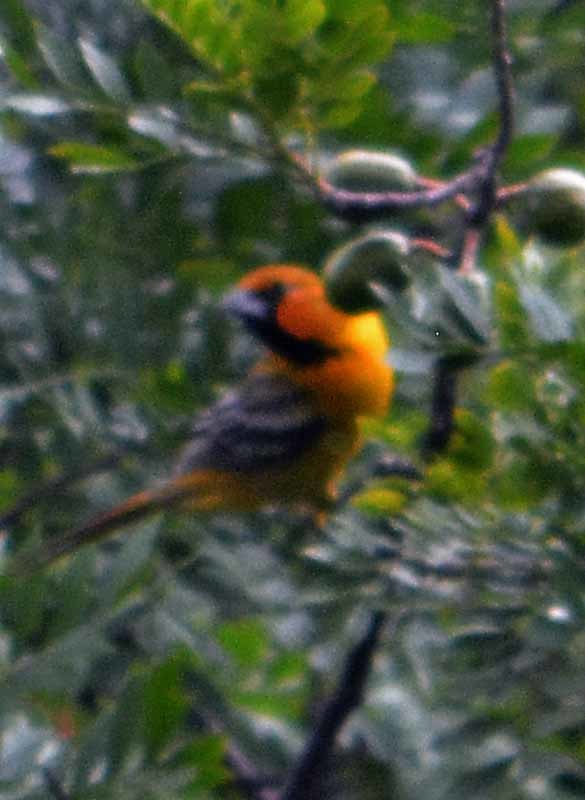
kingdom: Animalia
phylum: Chordata
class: Aves
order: Passeriformes
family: Icteridae
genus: Icterus
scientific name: Icterus pustulatus
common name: Streak-backed oriole
